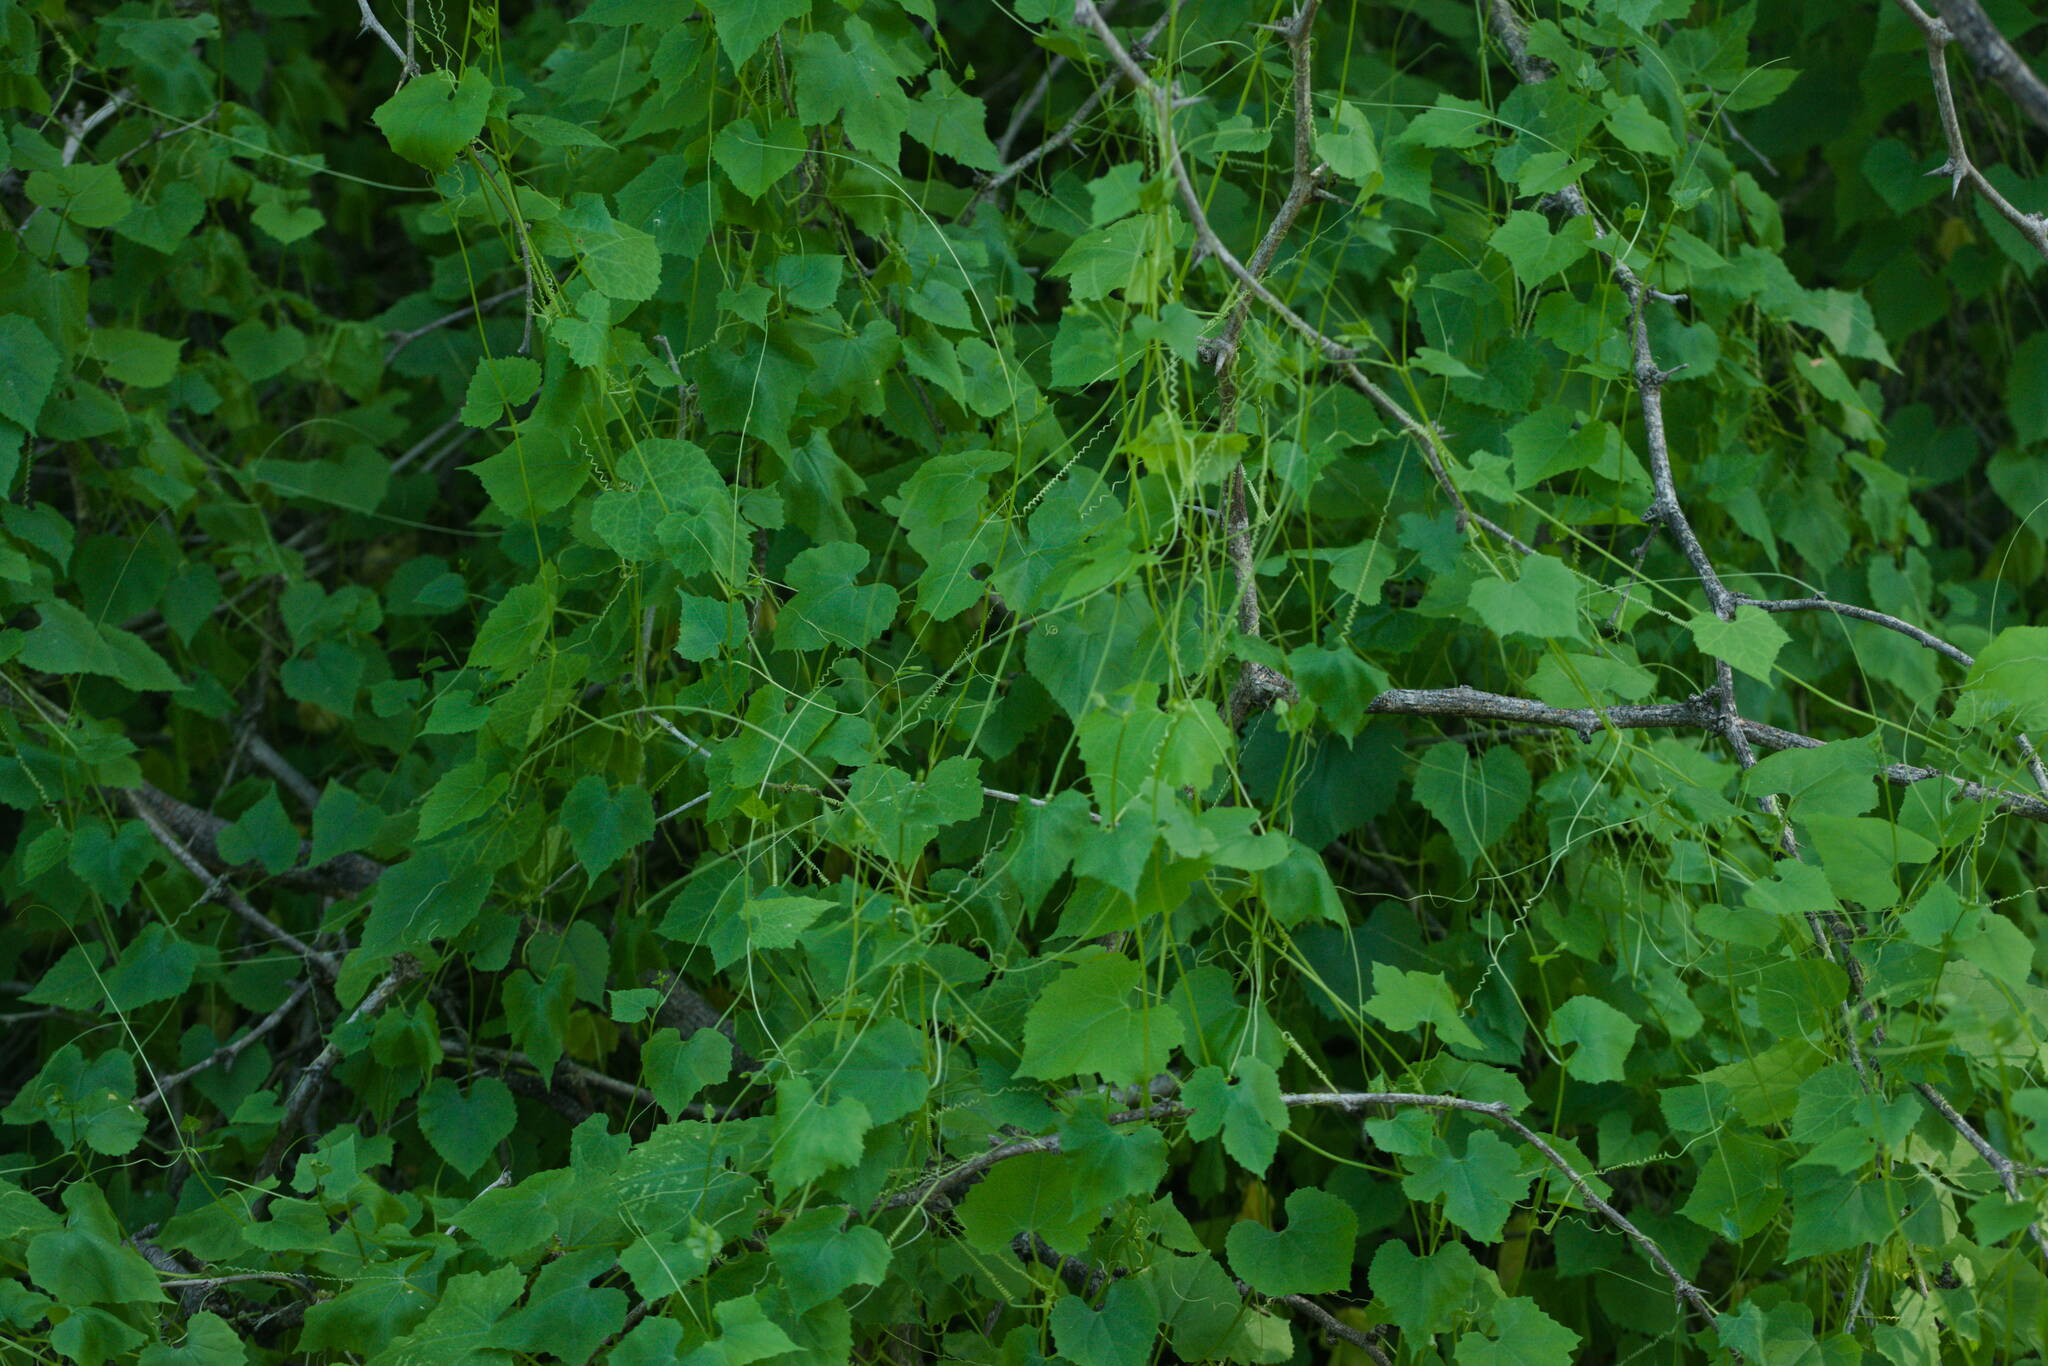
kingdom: Plantae
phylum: Tracheophyta
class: Magnoliopsida
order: Cucurbitales
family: Cucurbitaceae
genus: Sicyos
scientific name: Sicyos pachycarpa
